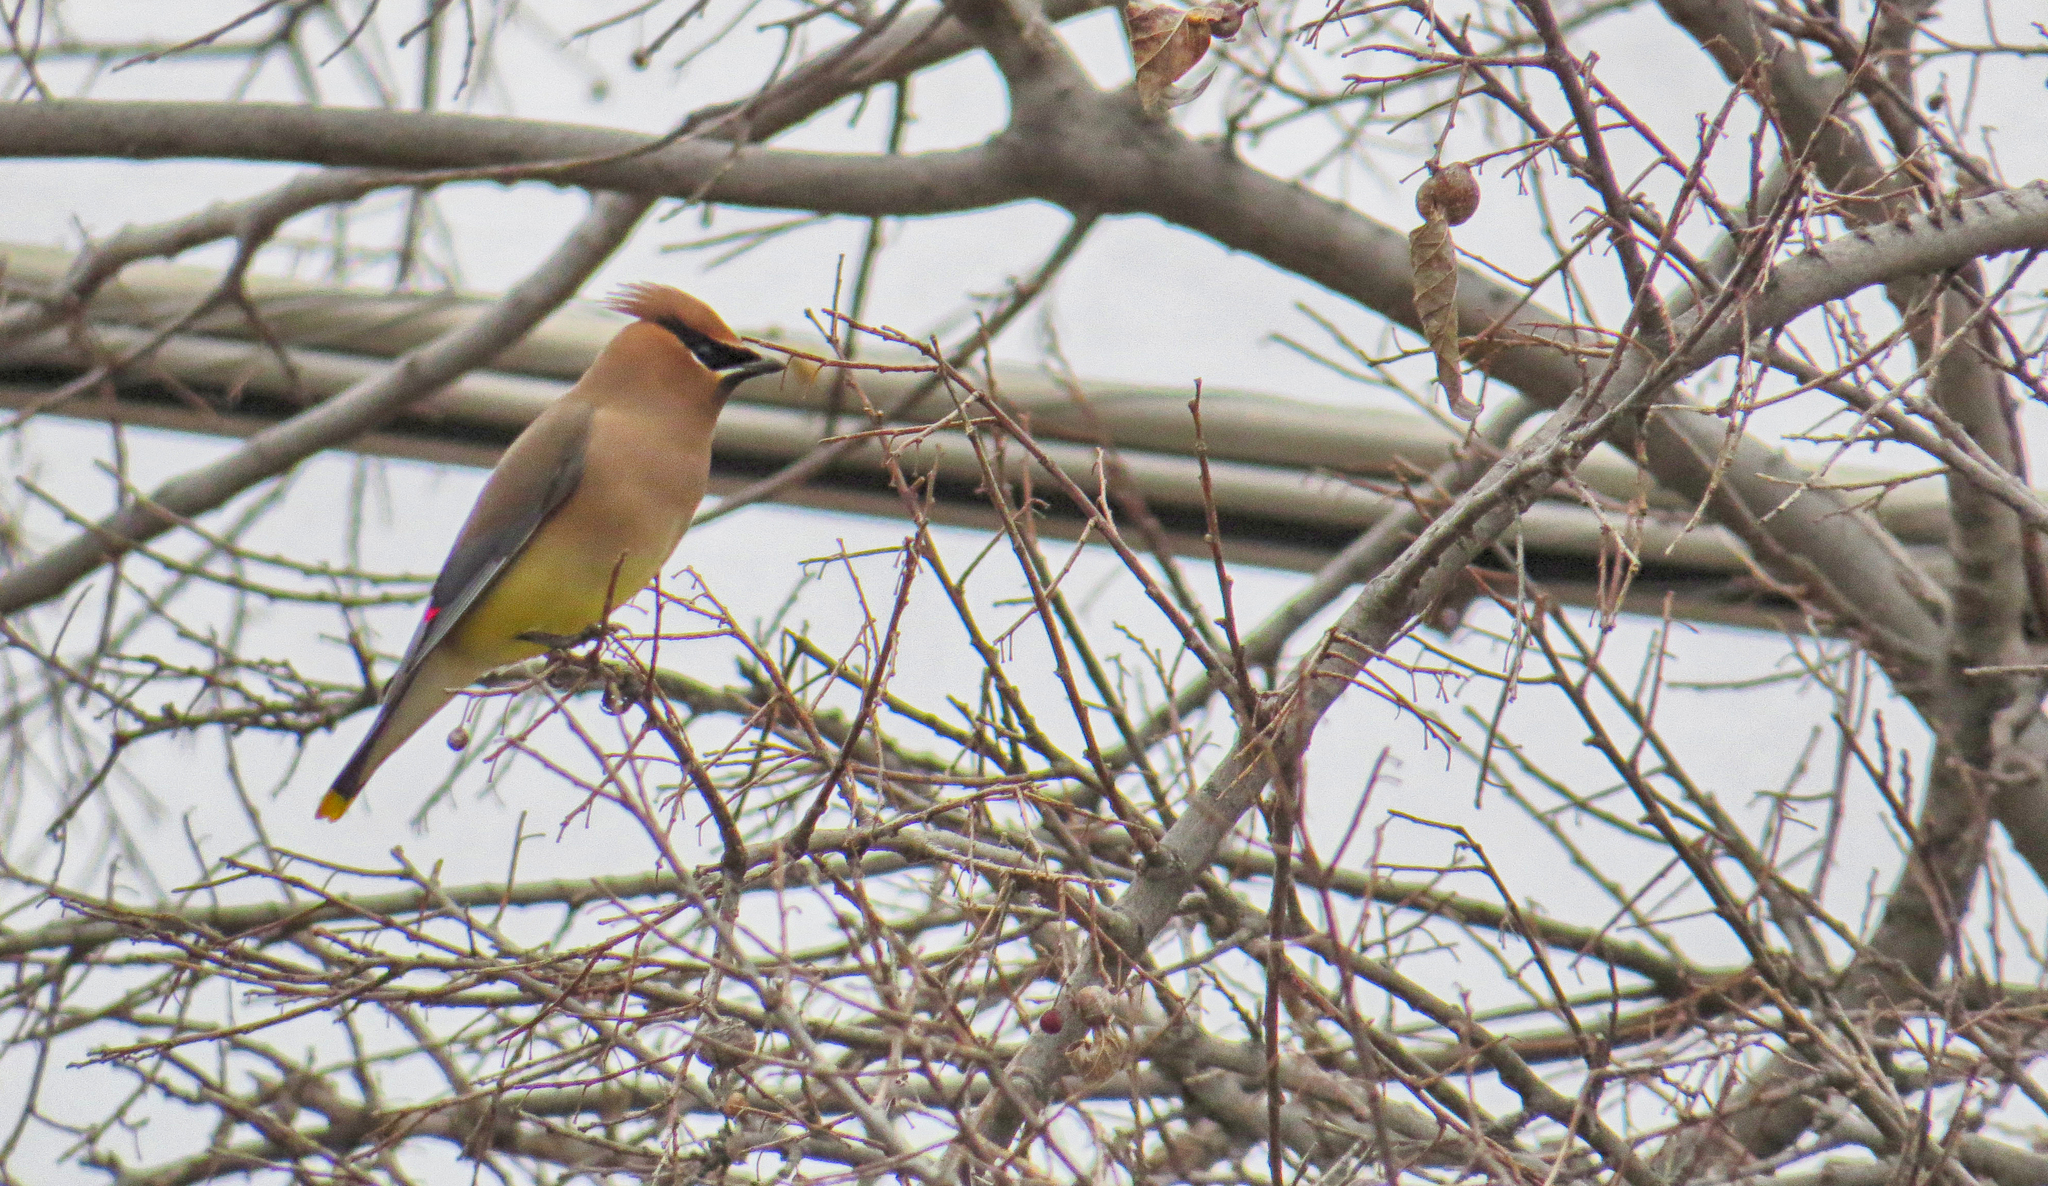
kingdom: Animalia
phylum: Chordata
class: Aves
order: Passeriformes
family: Bombycillidae
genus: Bombycilla
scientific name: Bombycilla cedrorum
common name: Cedar waxwing
